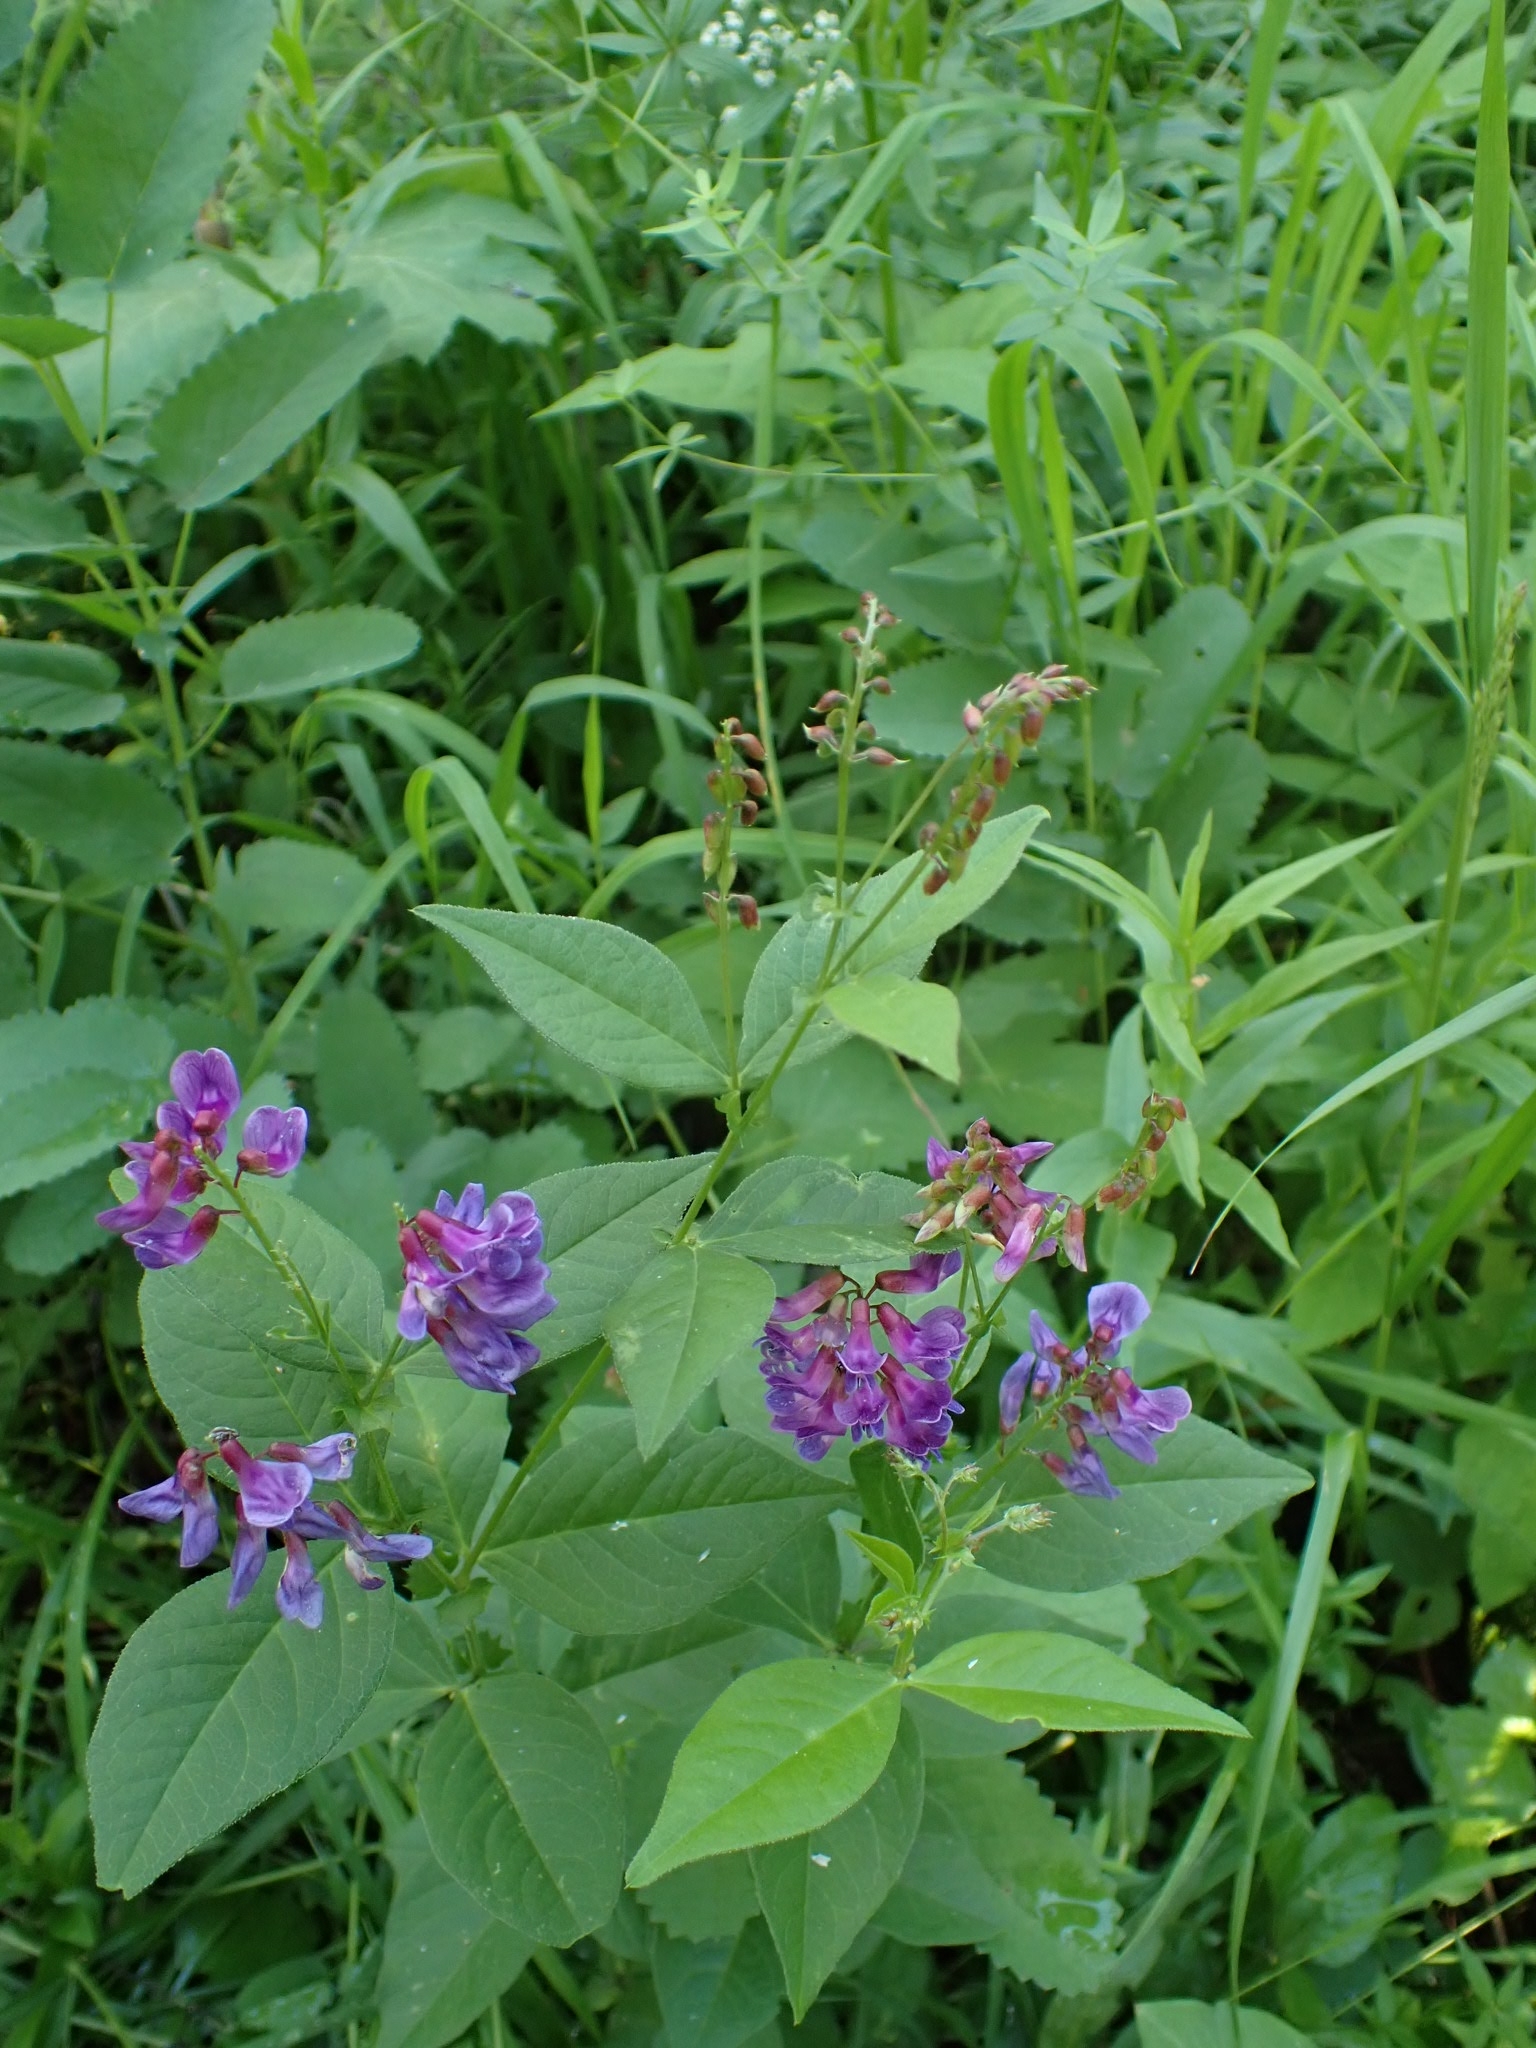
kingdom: Plantae
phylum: Tracheophyta
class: Magnoliopsida
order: Fabales
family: Fabaceae
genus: Vicia
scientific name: Vicia unijuga
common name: Two-leaf vetch
